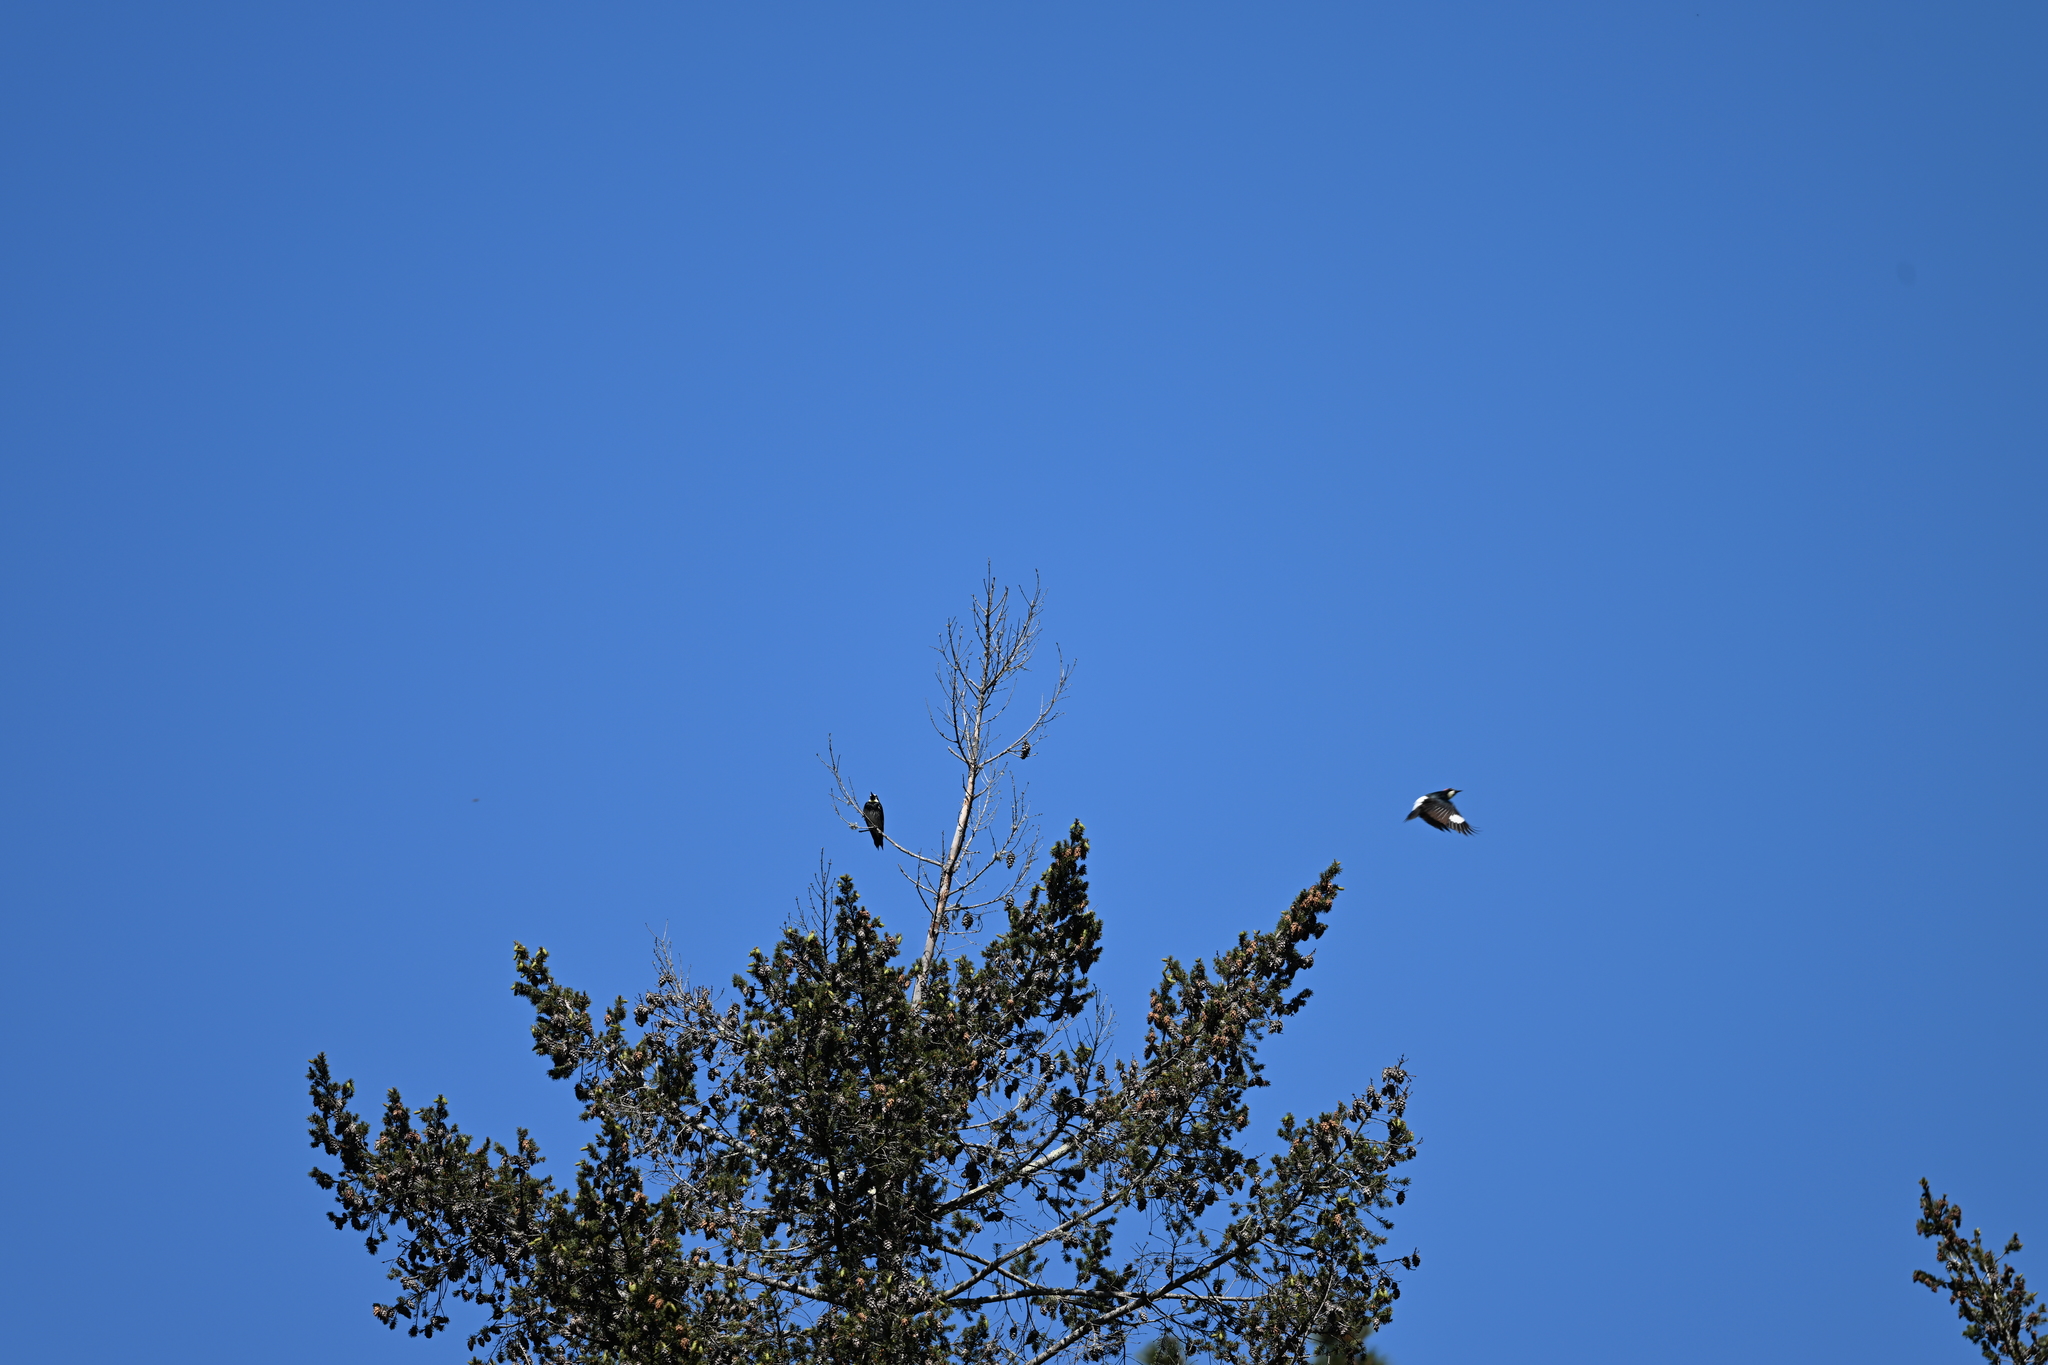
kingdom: Animalia
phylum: Chordata
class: Aves
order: Piciformes
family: Picidae
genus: Melanerpes
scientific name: Melanerpes formicivorus
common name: Acorn woodpecker
